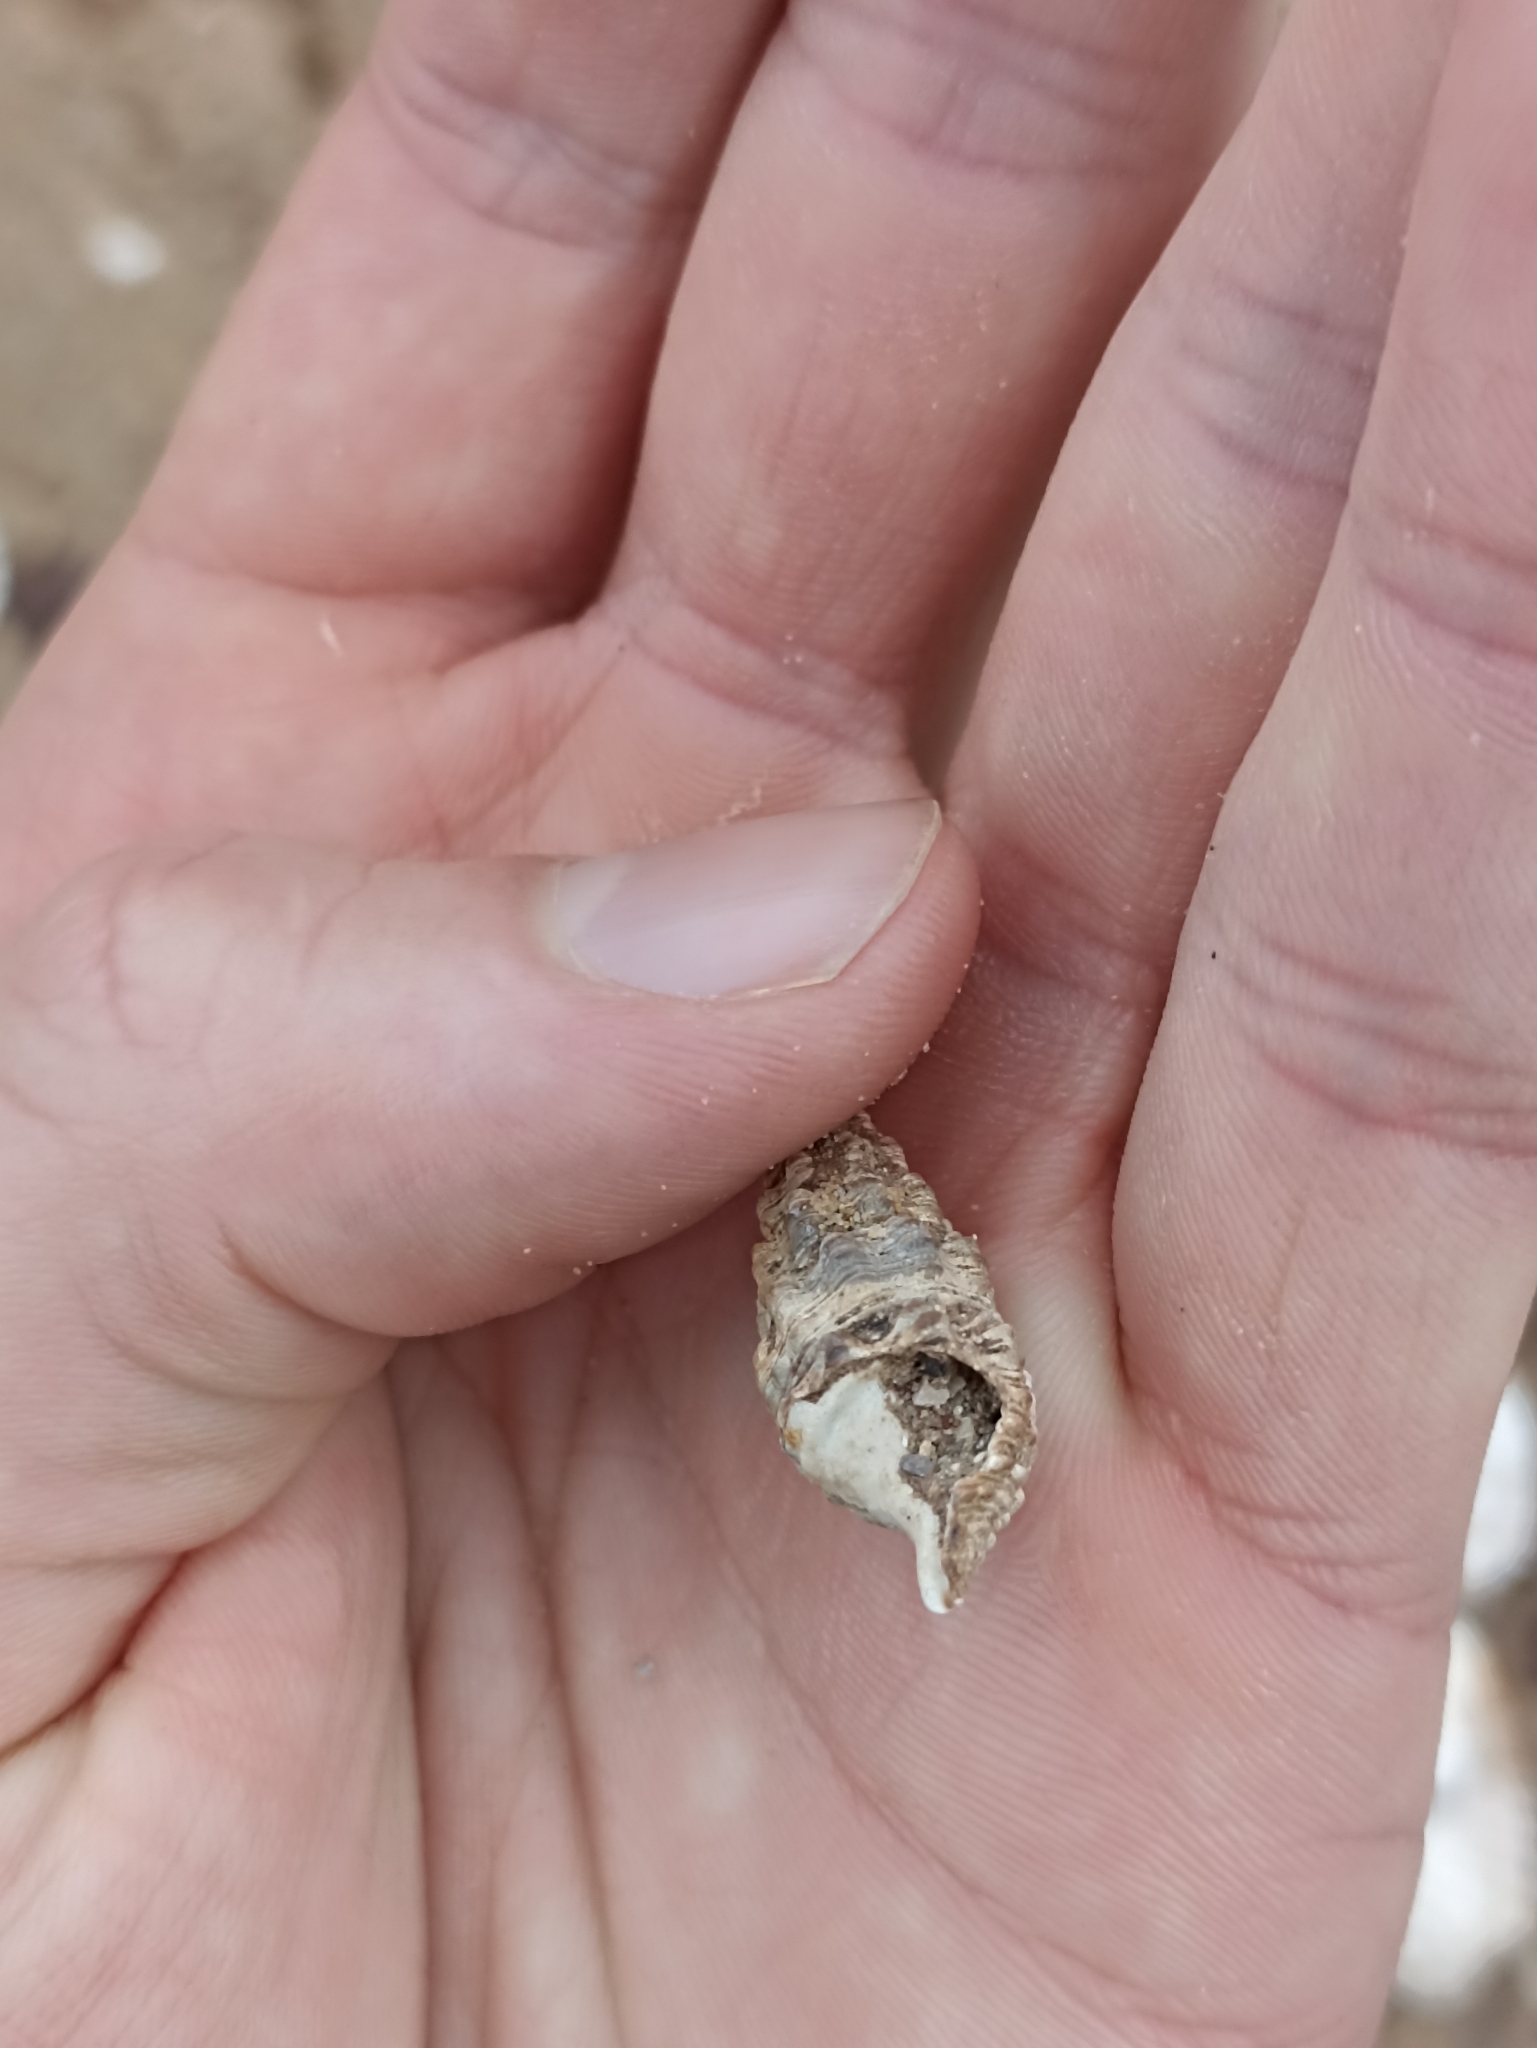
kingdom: Animalia
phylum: Mollusca
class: Gastropoda
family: Batillariidae
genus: Batillaria
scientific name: Batillaria australis
